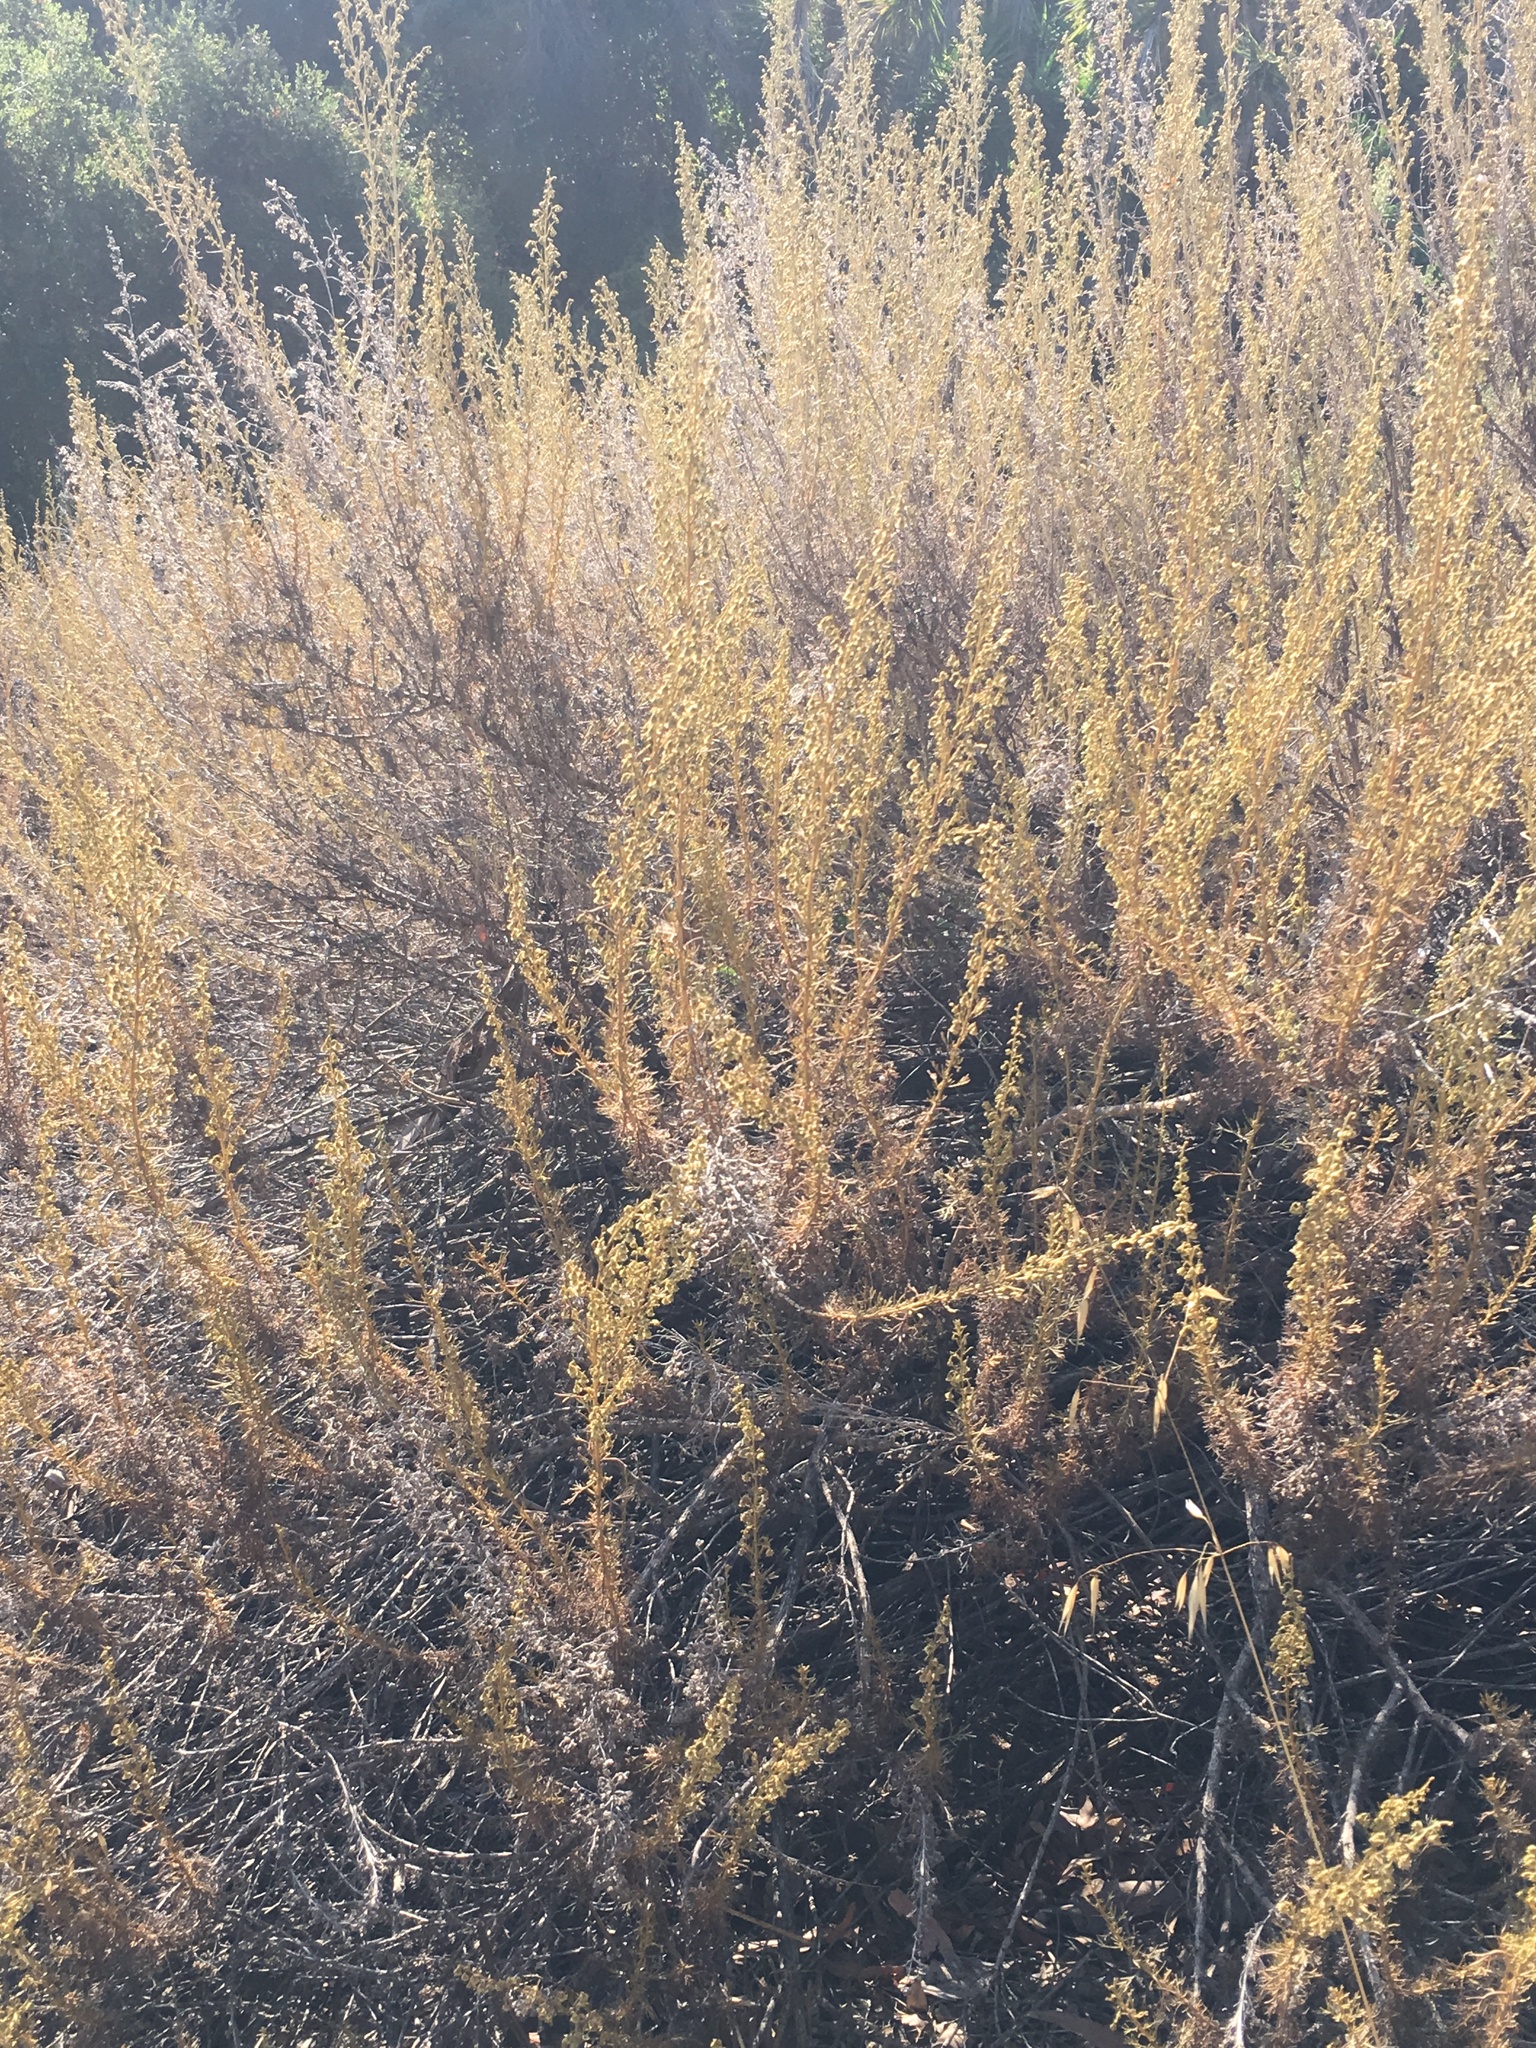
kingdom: Plantae
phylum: Tracheophyta
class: Magnoliopsida
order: Asterales
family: Asteraceae
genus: Artemisia
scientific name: Artemisia californica
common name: California sagebrush
